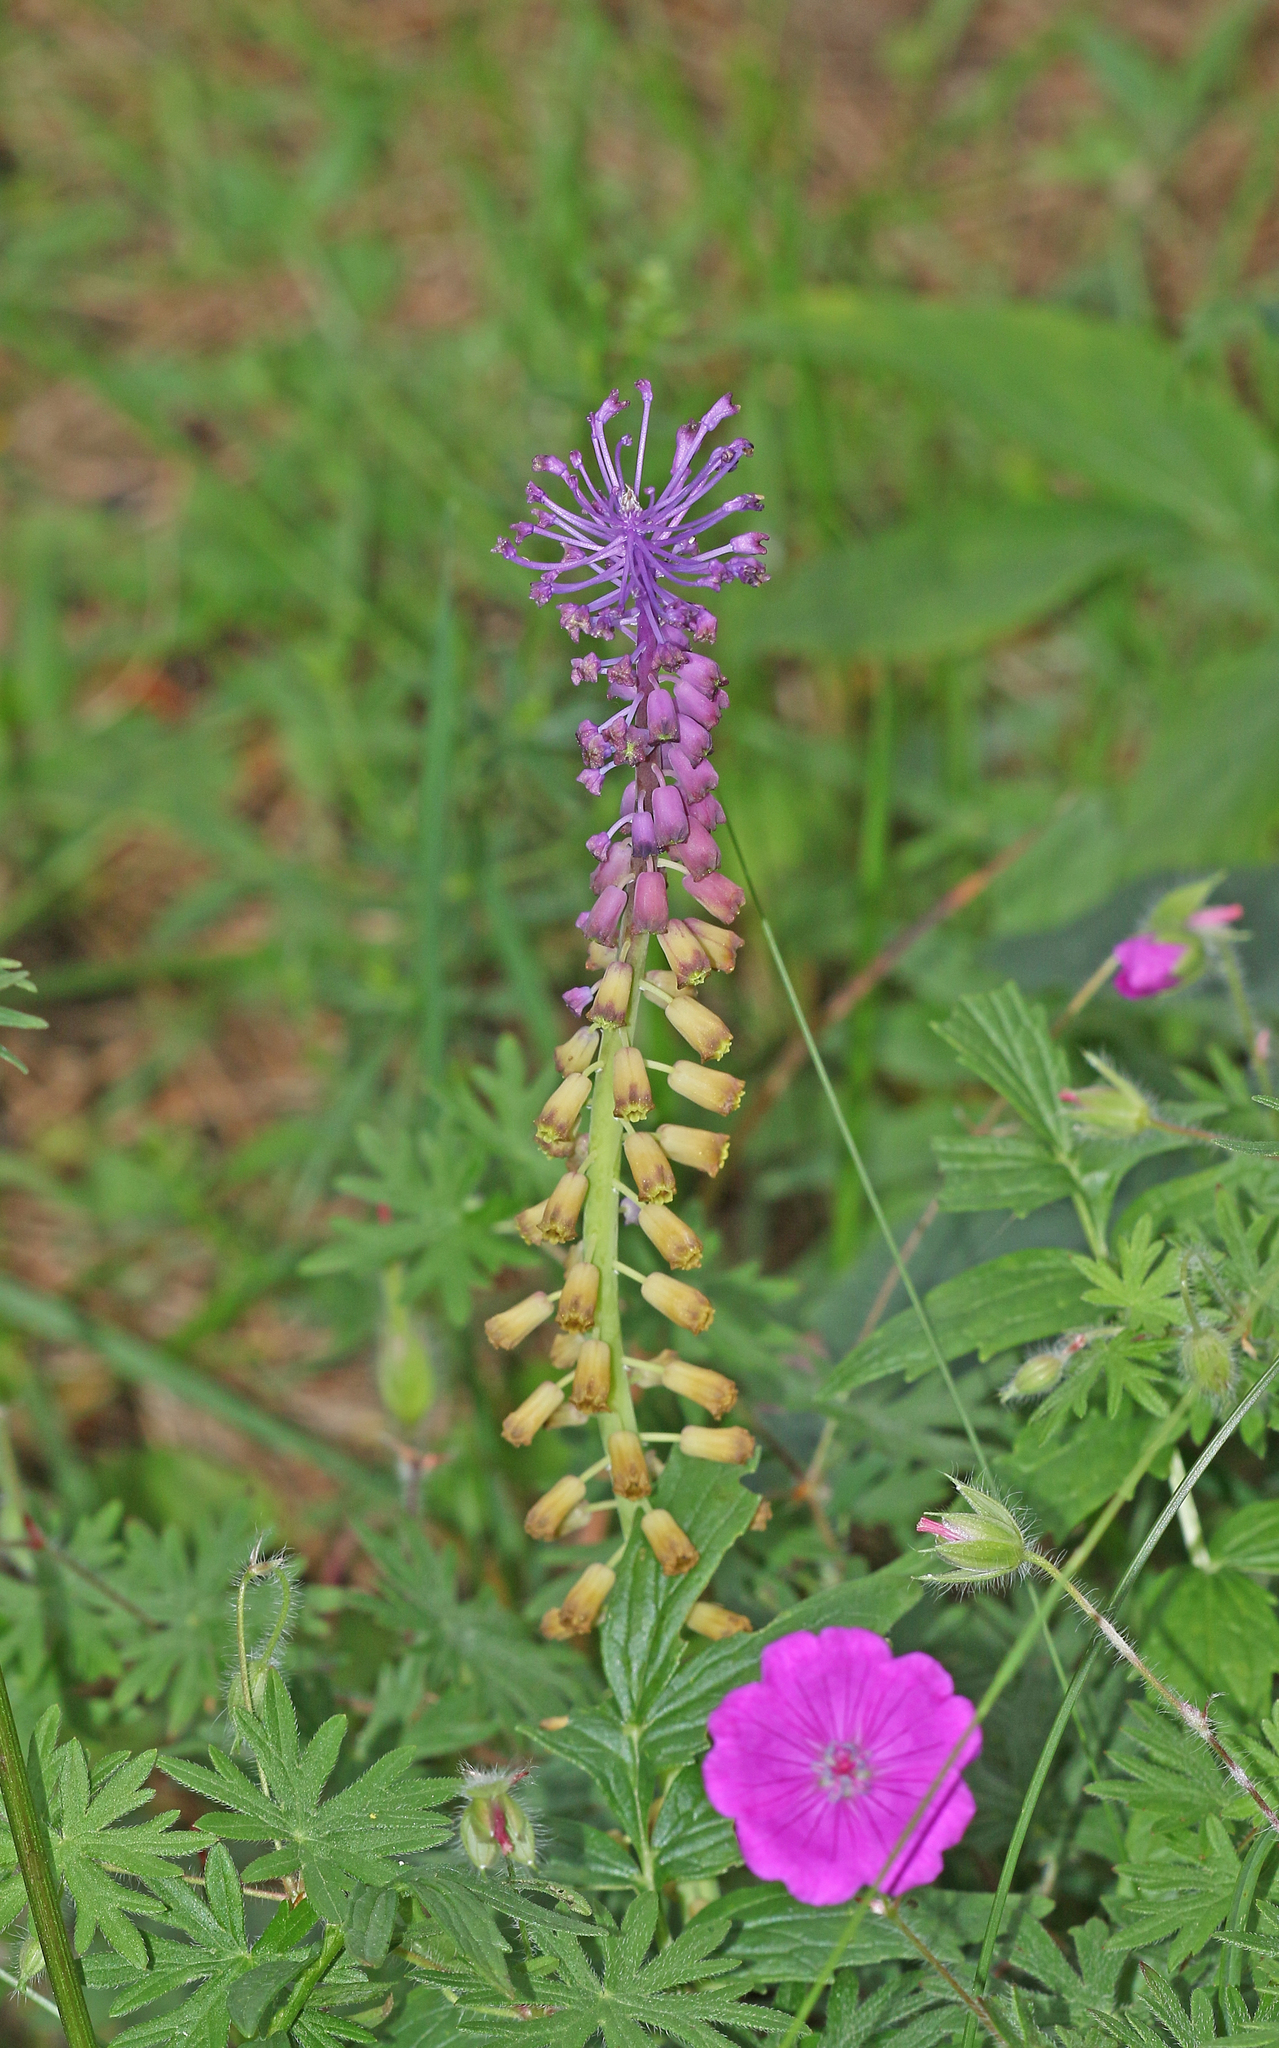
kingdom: Plantae
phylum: Tracheophyta
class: Liliopsida
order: Asparagales
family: Asparagaceae
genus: Muscari
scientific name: Muscari comosum
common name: Tassel hyacinth
